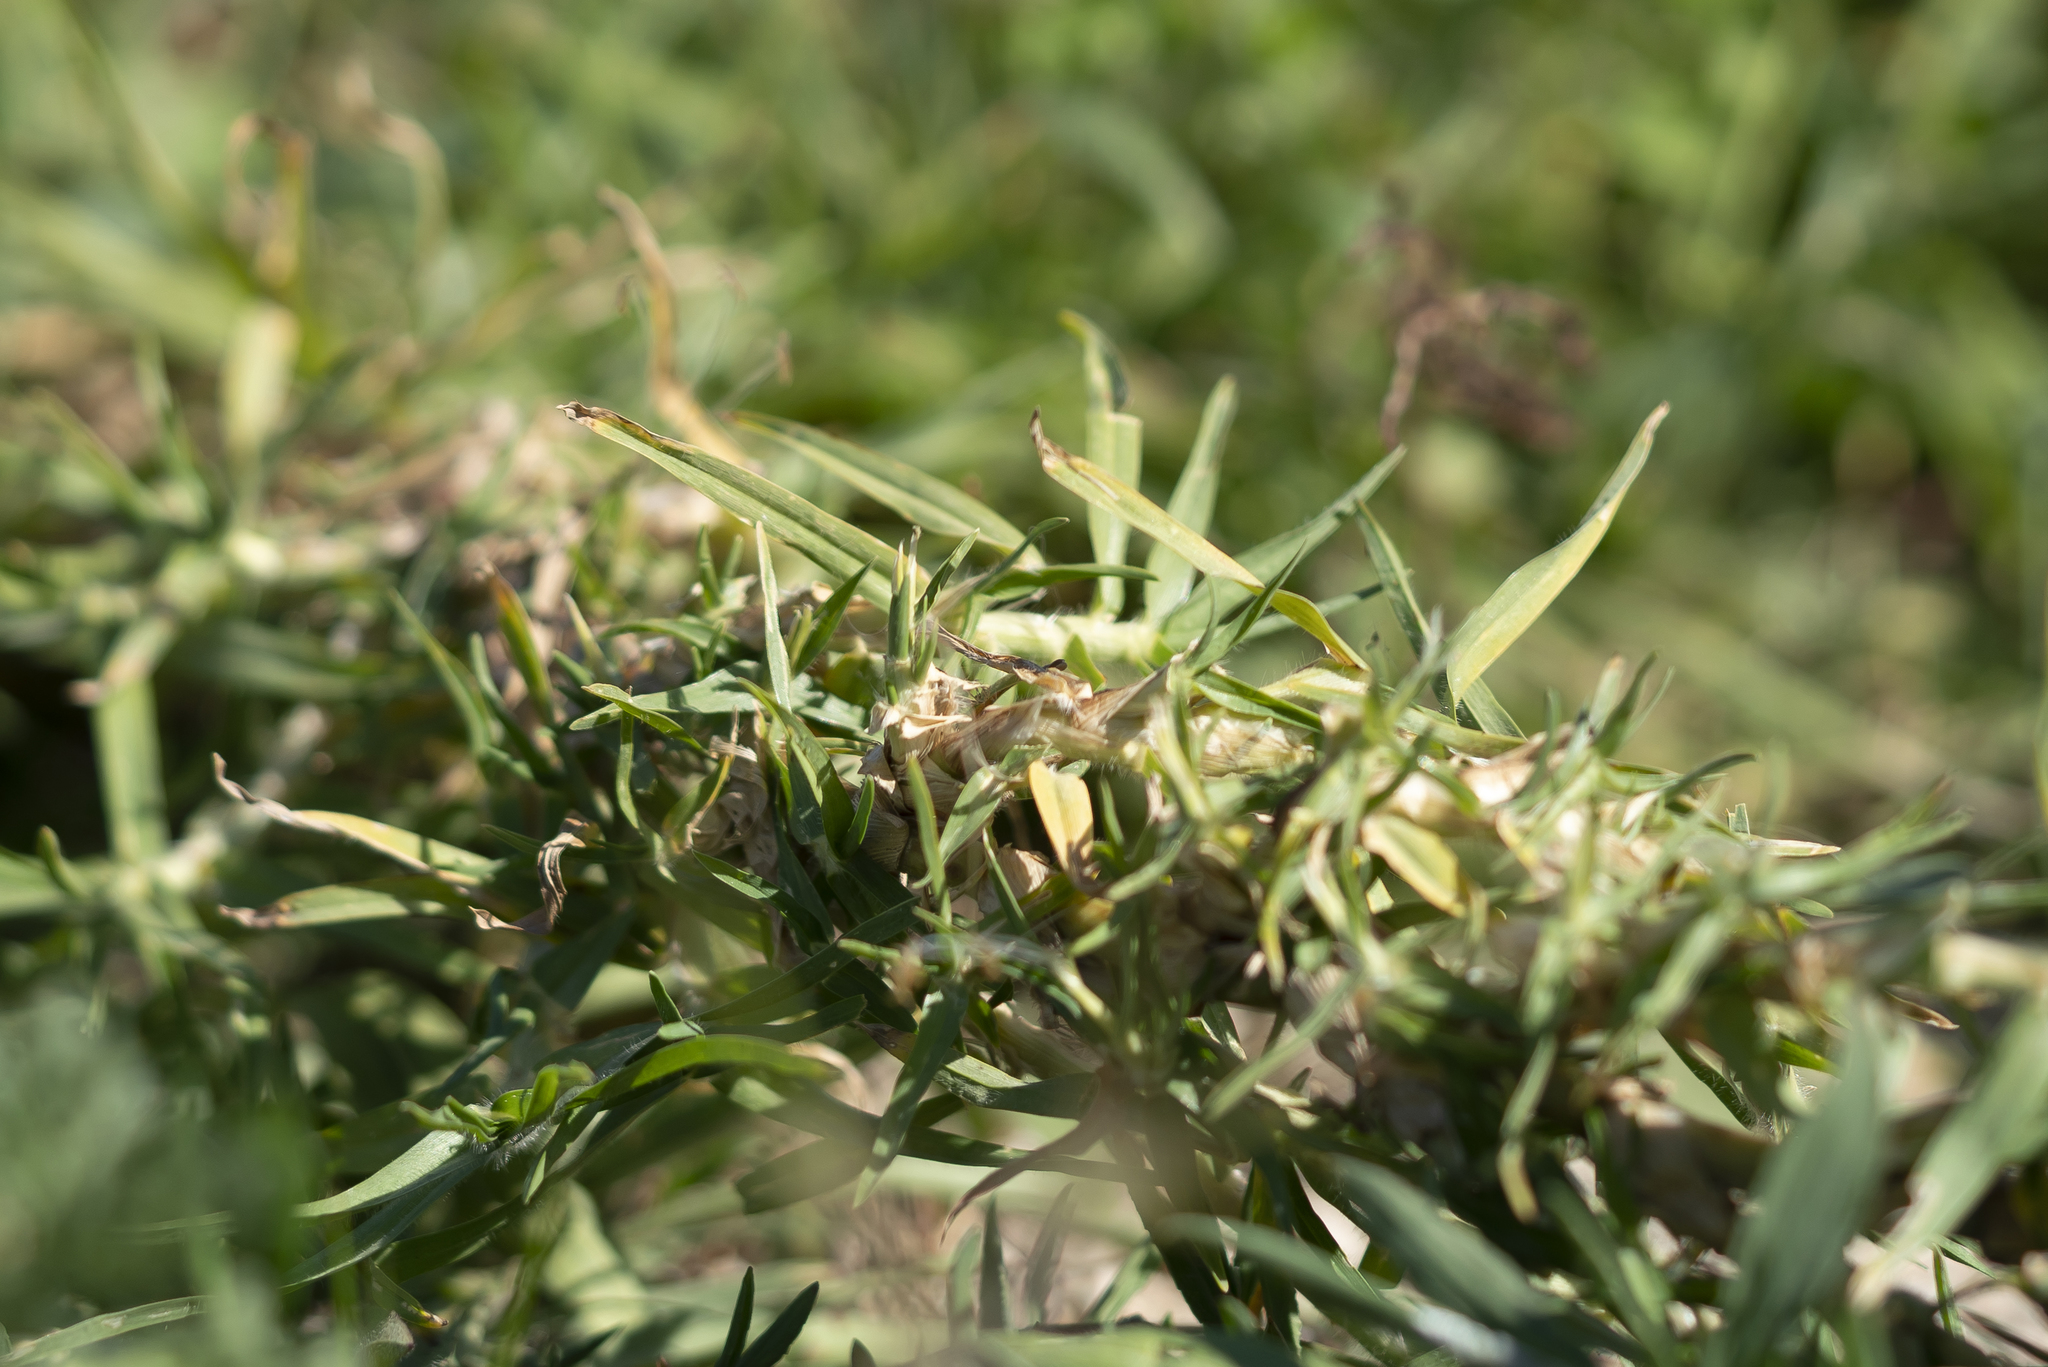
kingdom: Plantae
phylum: Tracheophyta
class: Liliopsida
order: Poales
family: Poaceae
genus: Cenchrus
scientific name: Cenchrus clandestinus
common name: Kikuyugrass
